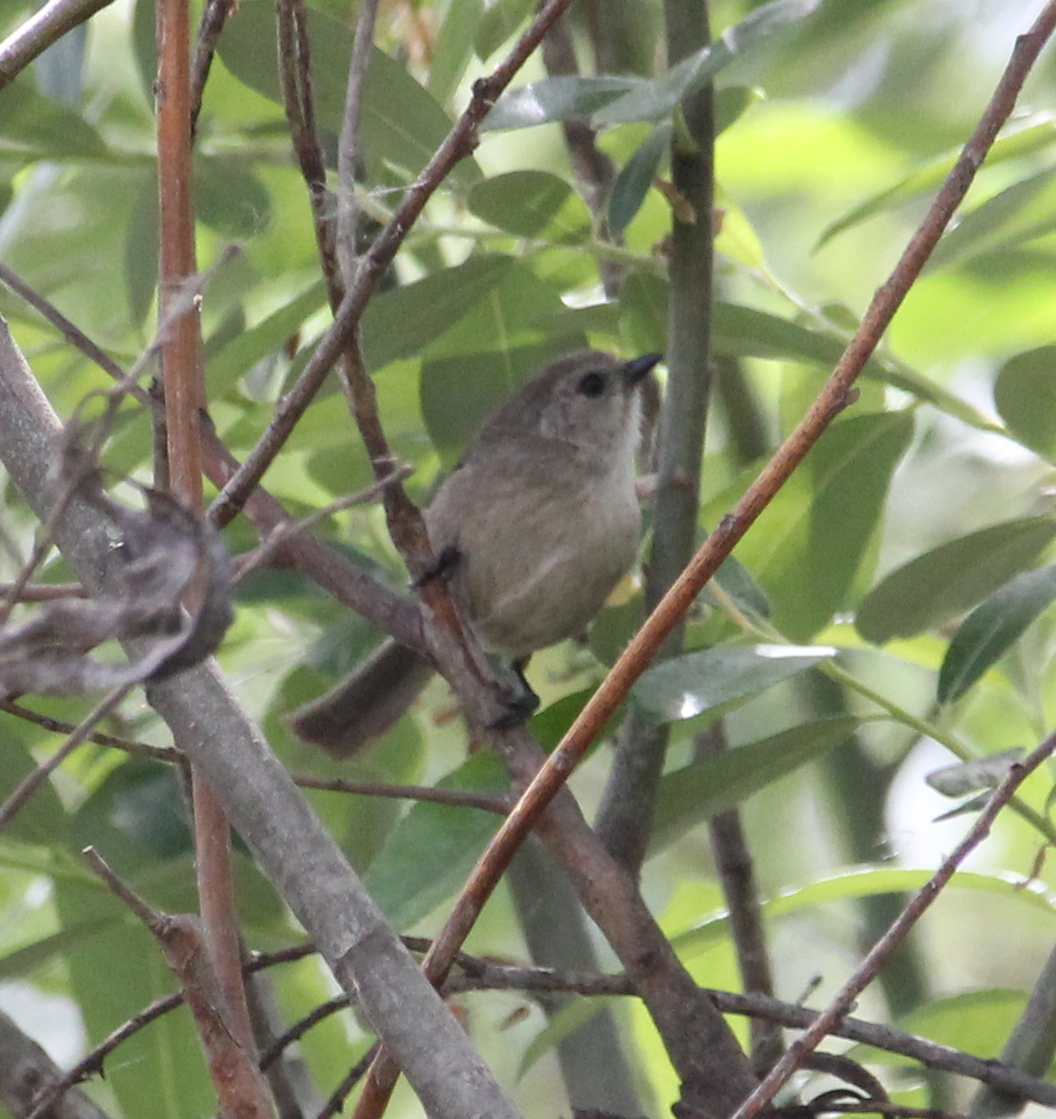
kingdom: Animalia
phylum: Chordata
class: Aves
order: Passeriformes
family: Aegithalidae
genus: Psaltriparus
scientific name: Psaltriparus minimus
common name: American bushtit
